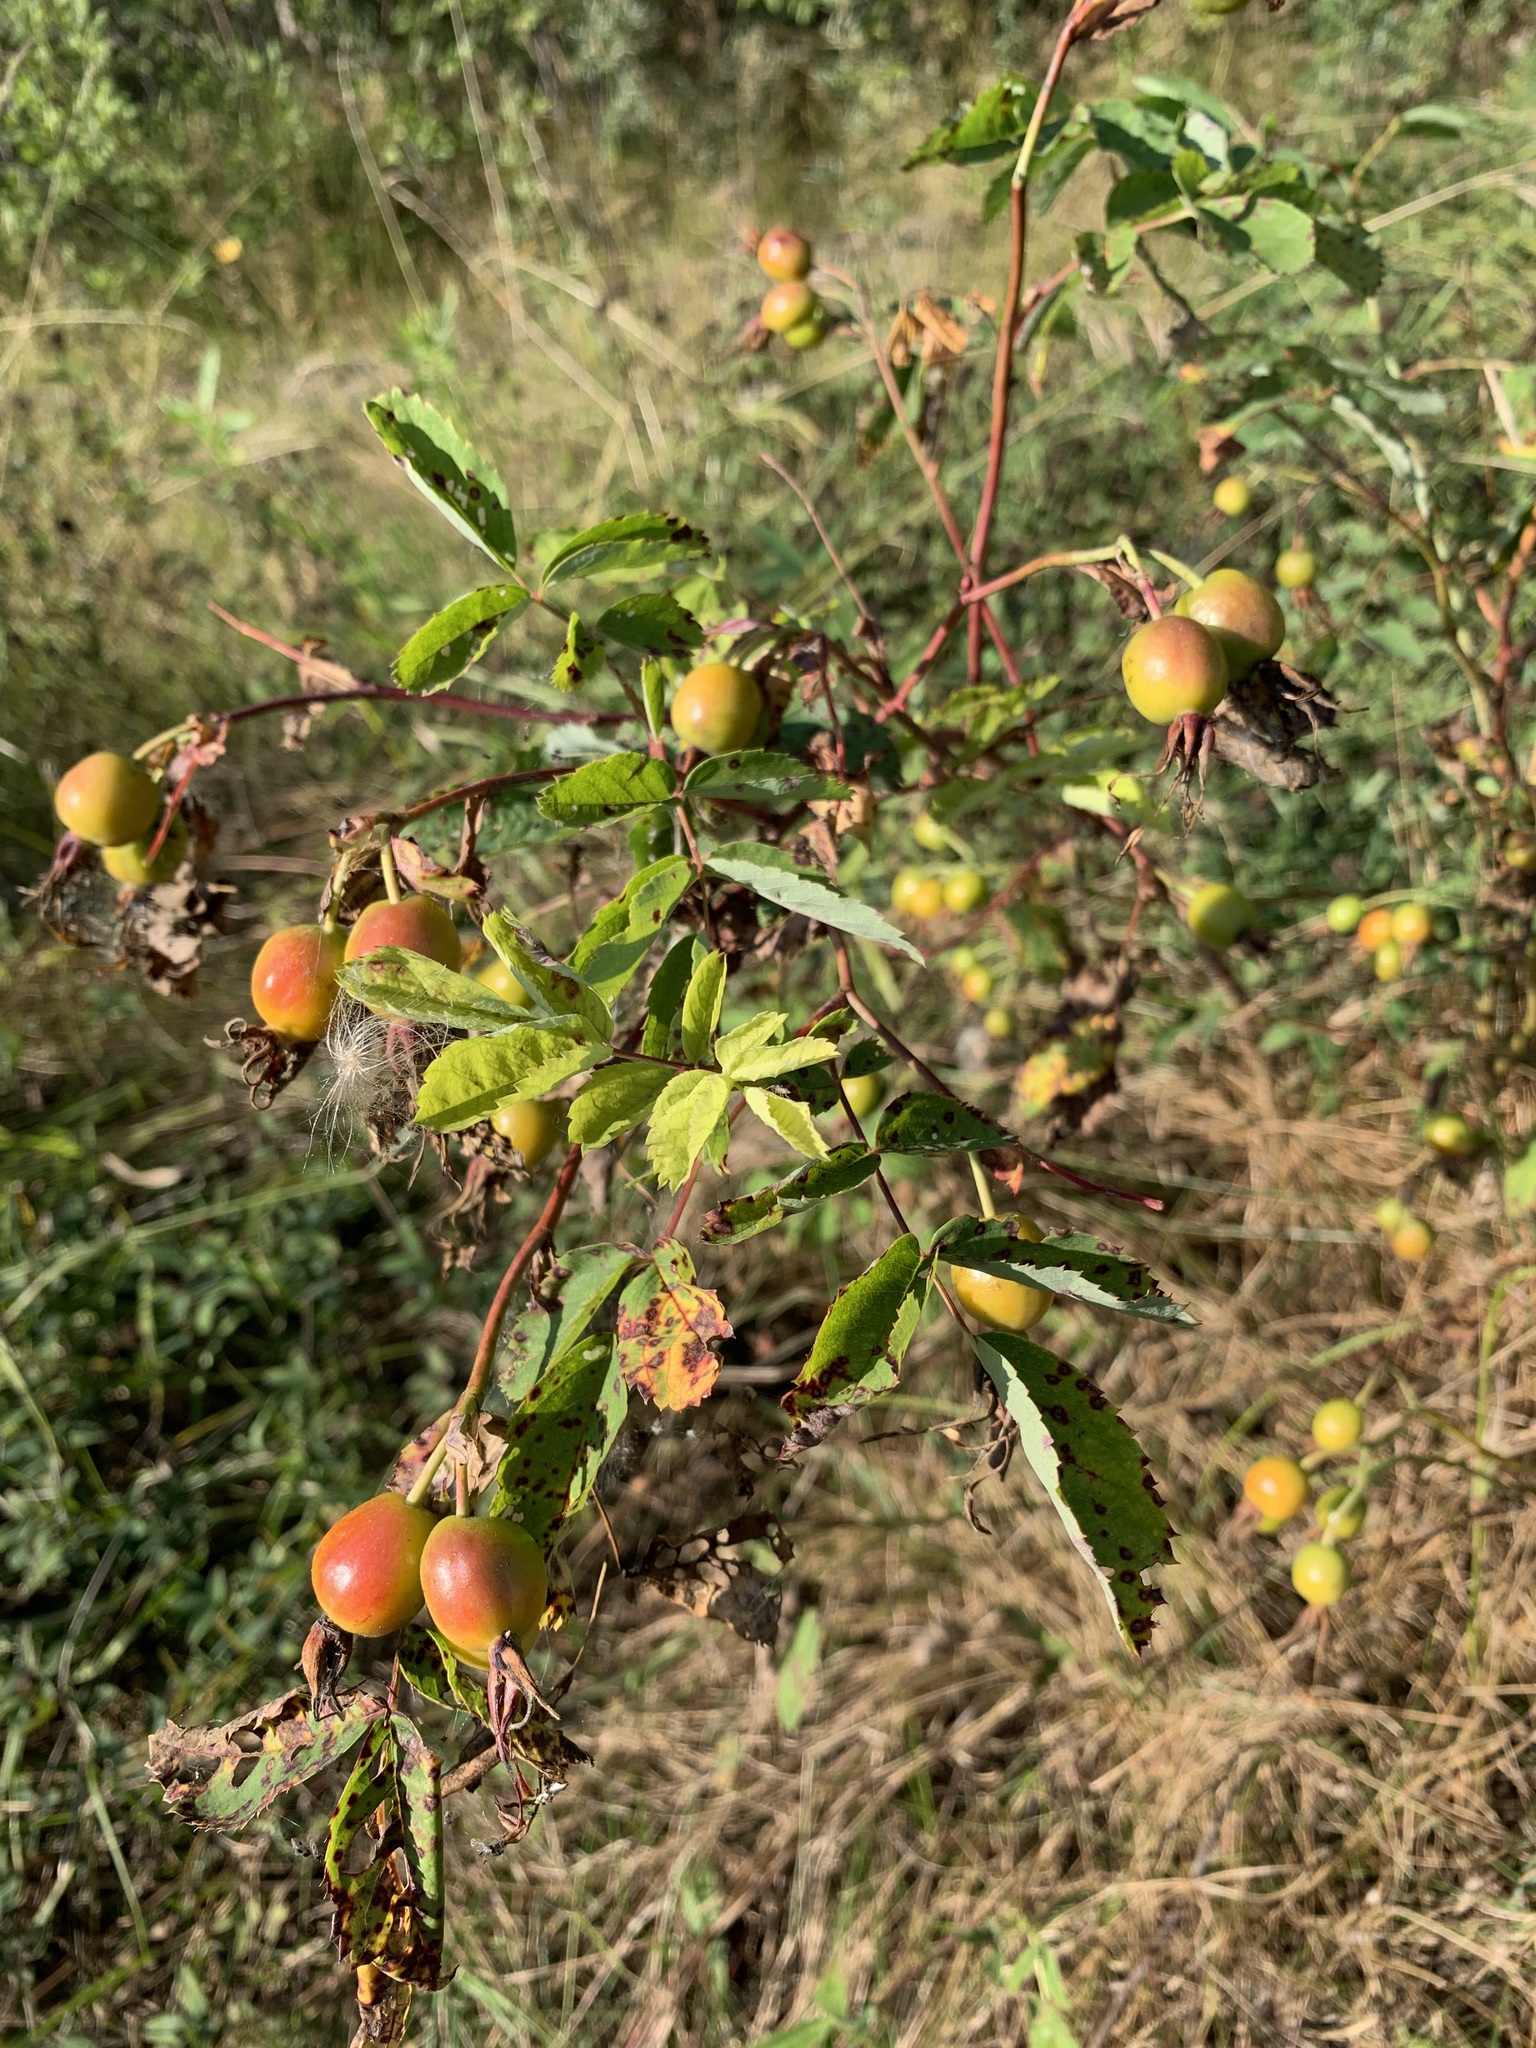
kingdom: Plantae
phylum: Tracheophyta
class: Magnoliopsida
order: Rosales
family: Rosaceae
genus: Rosa
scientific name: Rosa glabrifolia
